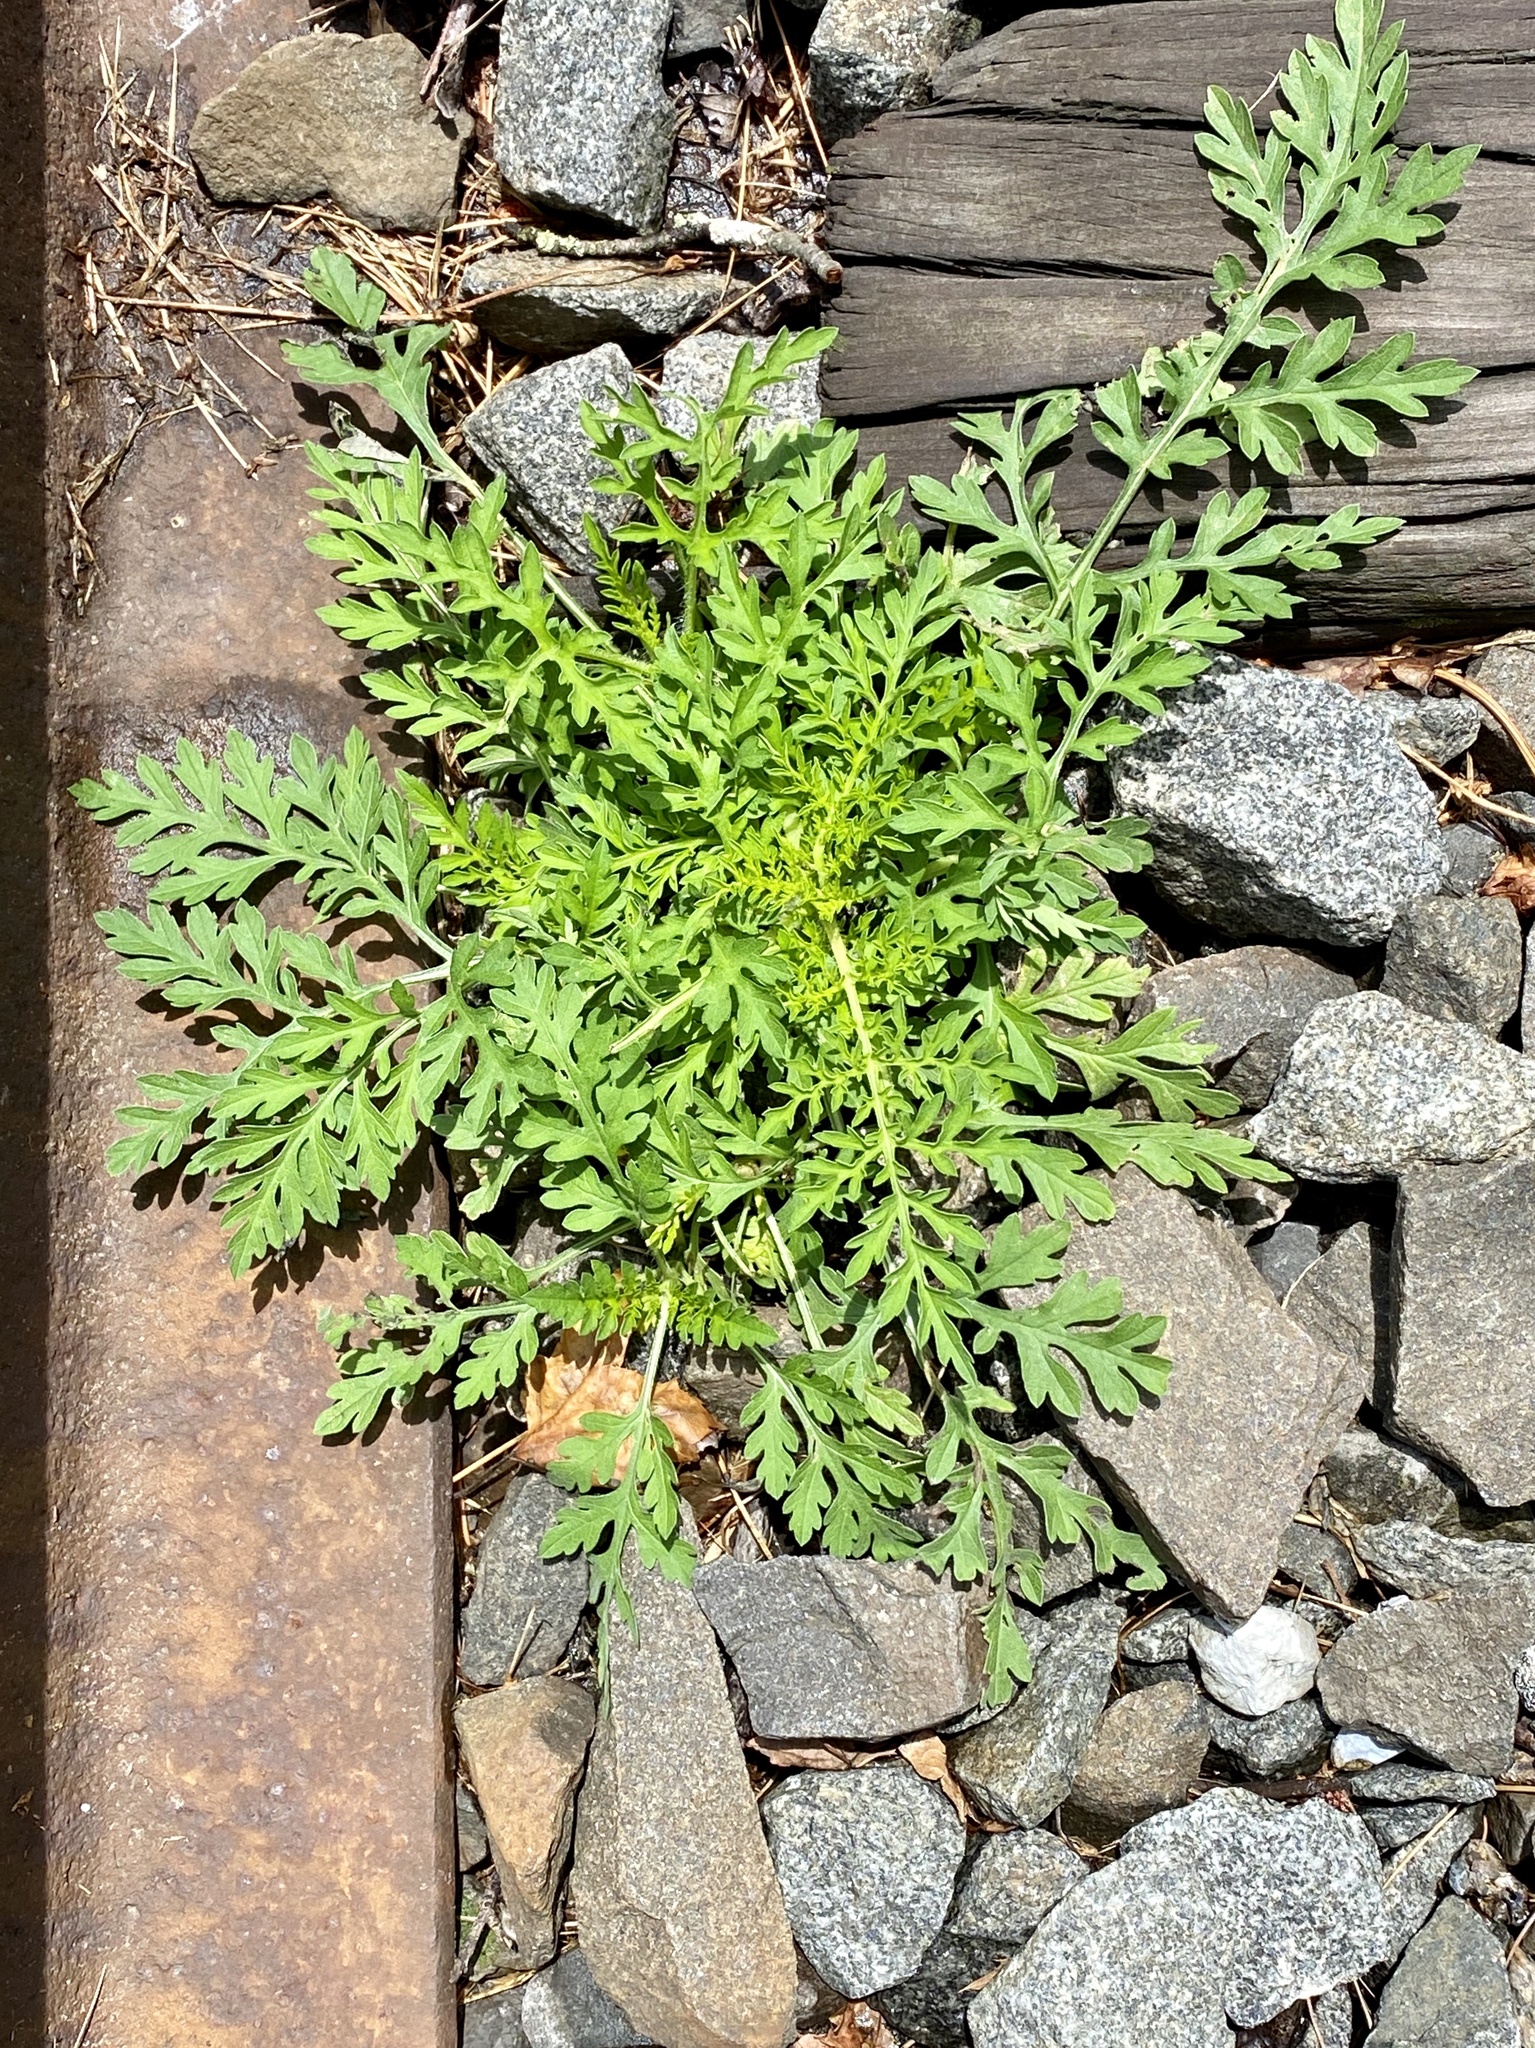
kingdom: Plantae
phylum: Tracheophyta
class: Magnoliopsida
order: Asterales
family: Asteraceae
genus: Ambrosia
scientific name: Ambrosia artemisiifolia
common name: Annual ragweed
